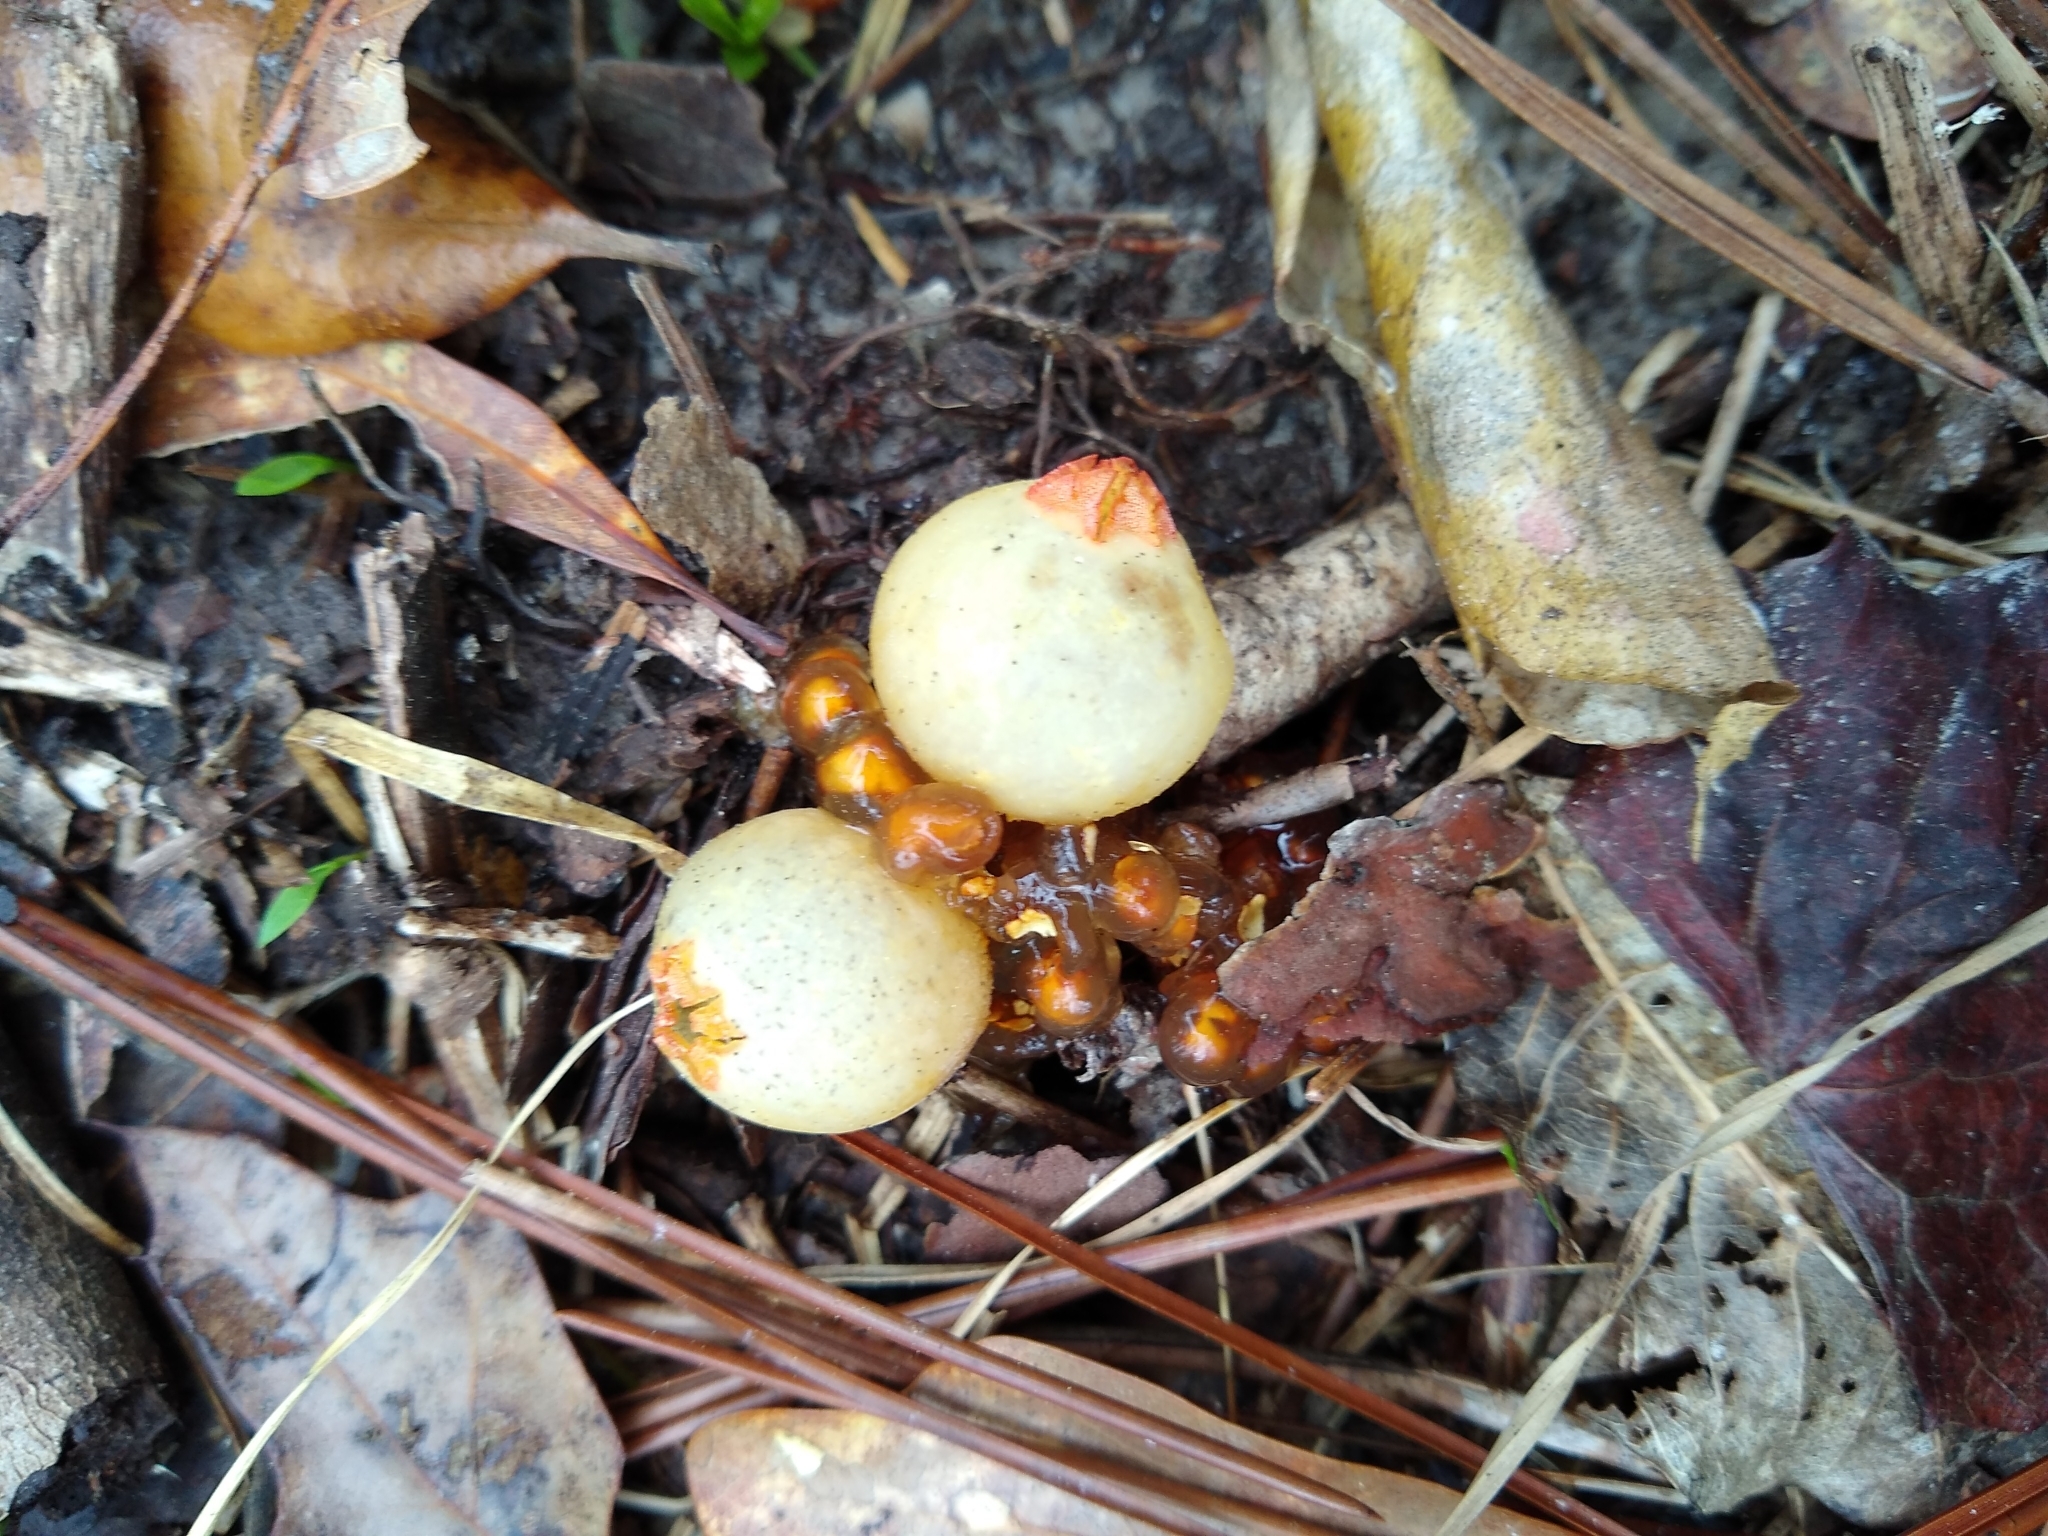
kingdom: Fungi
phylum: Basidiomycota
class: Agaricomycetes
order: Boletales
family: Calostomataceae
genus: Calostoma
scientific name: Calostoma cinnabarinum
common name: Stalked puffball-in-aspic
